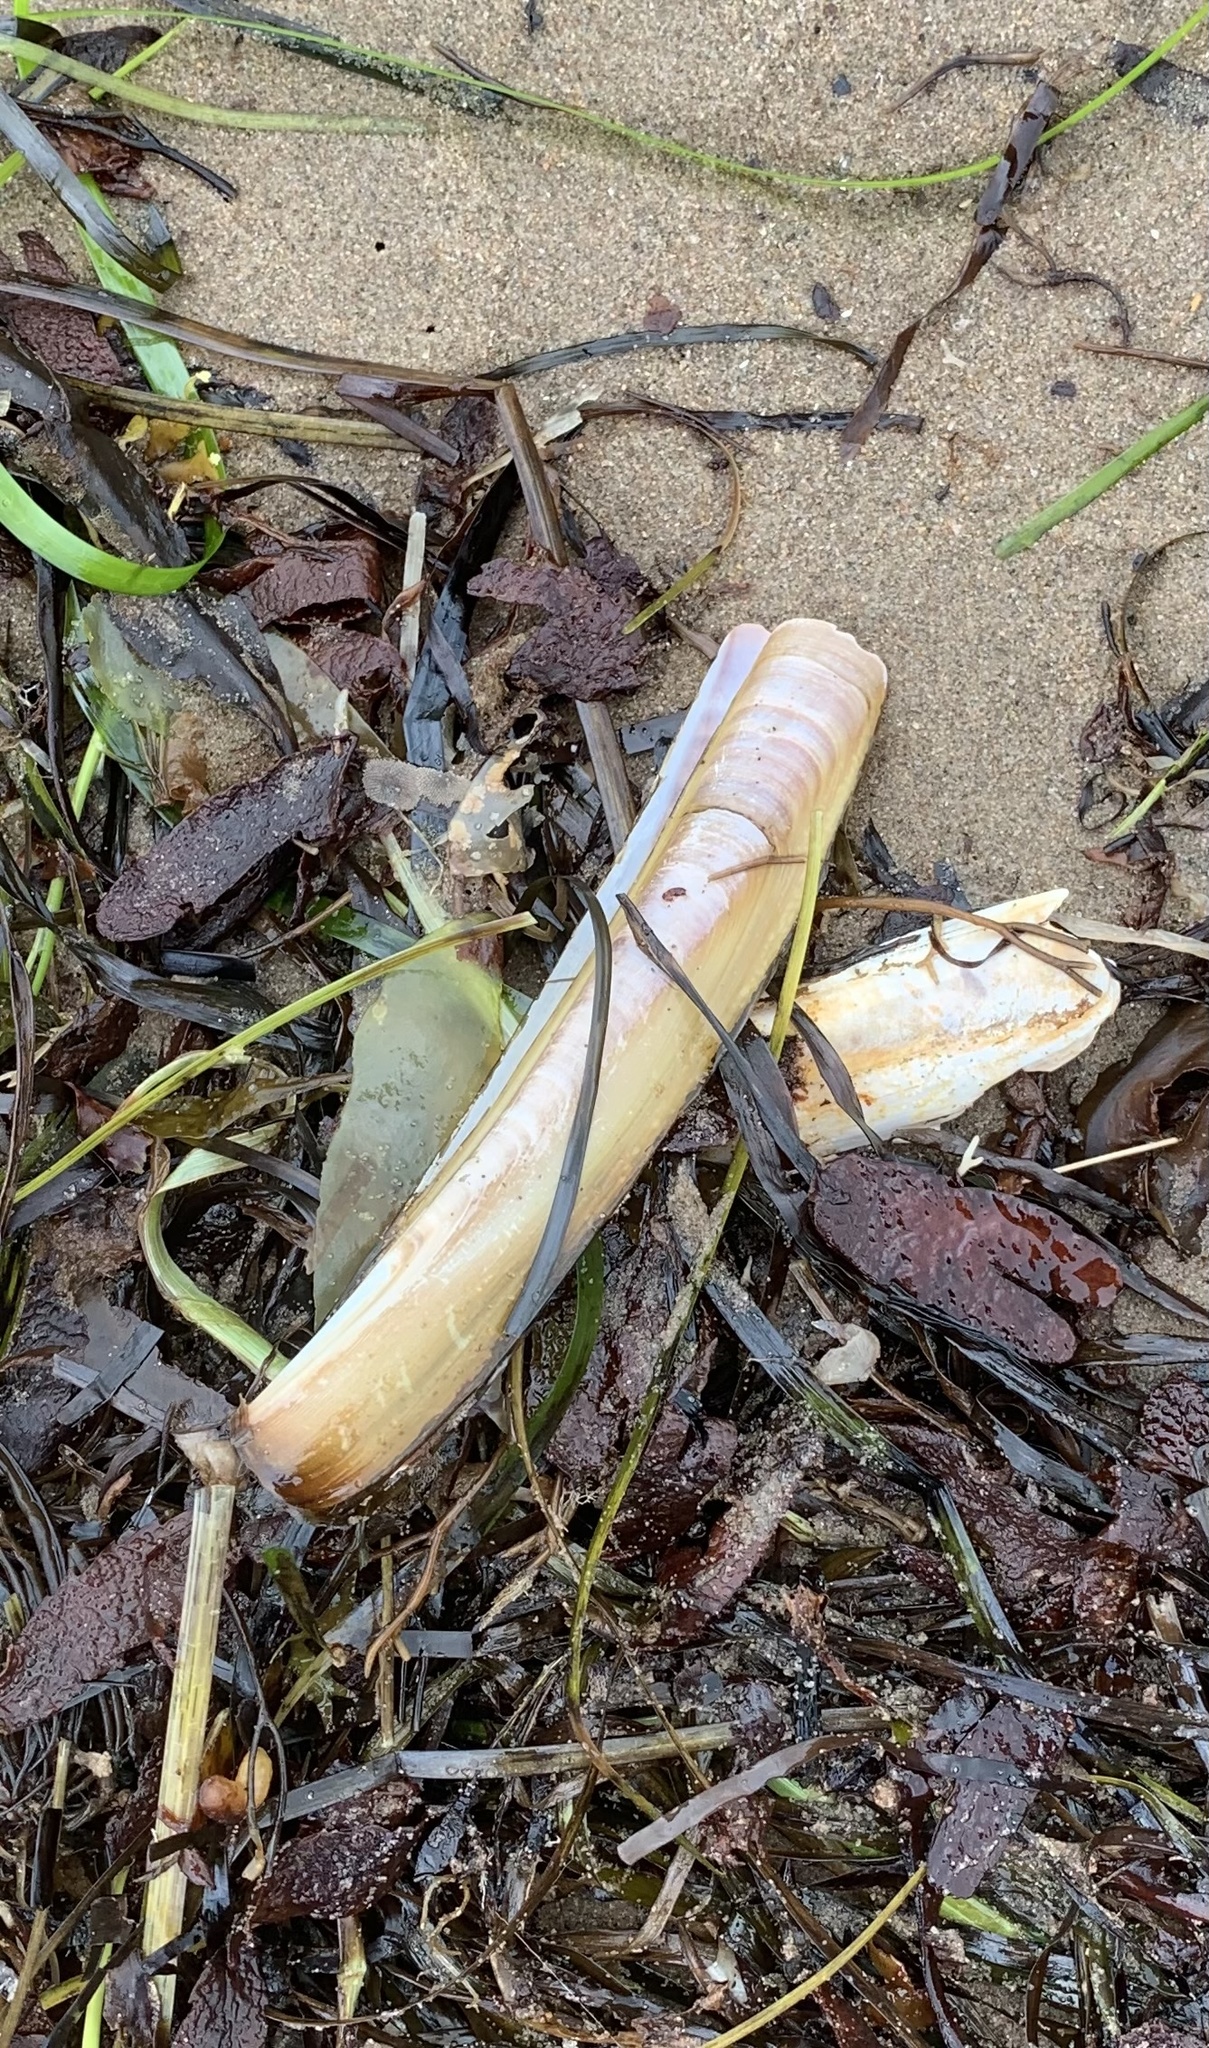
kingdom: Animalia
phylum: Mollusca
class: Bivalvia
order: Adapedonta
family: Pharidae
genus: Ensis
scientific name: Ensis leei
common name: American jack knife clam
